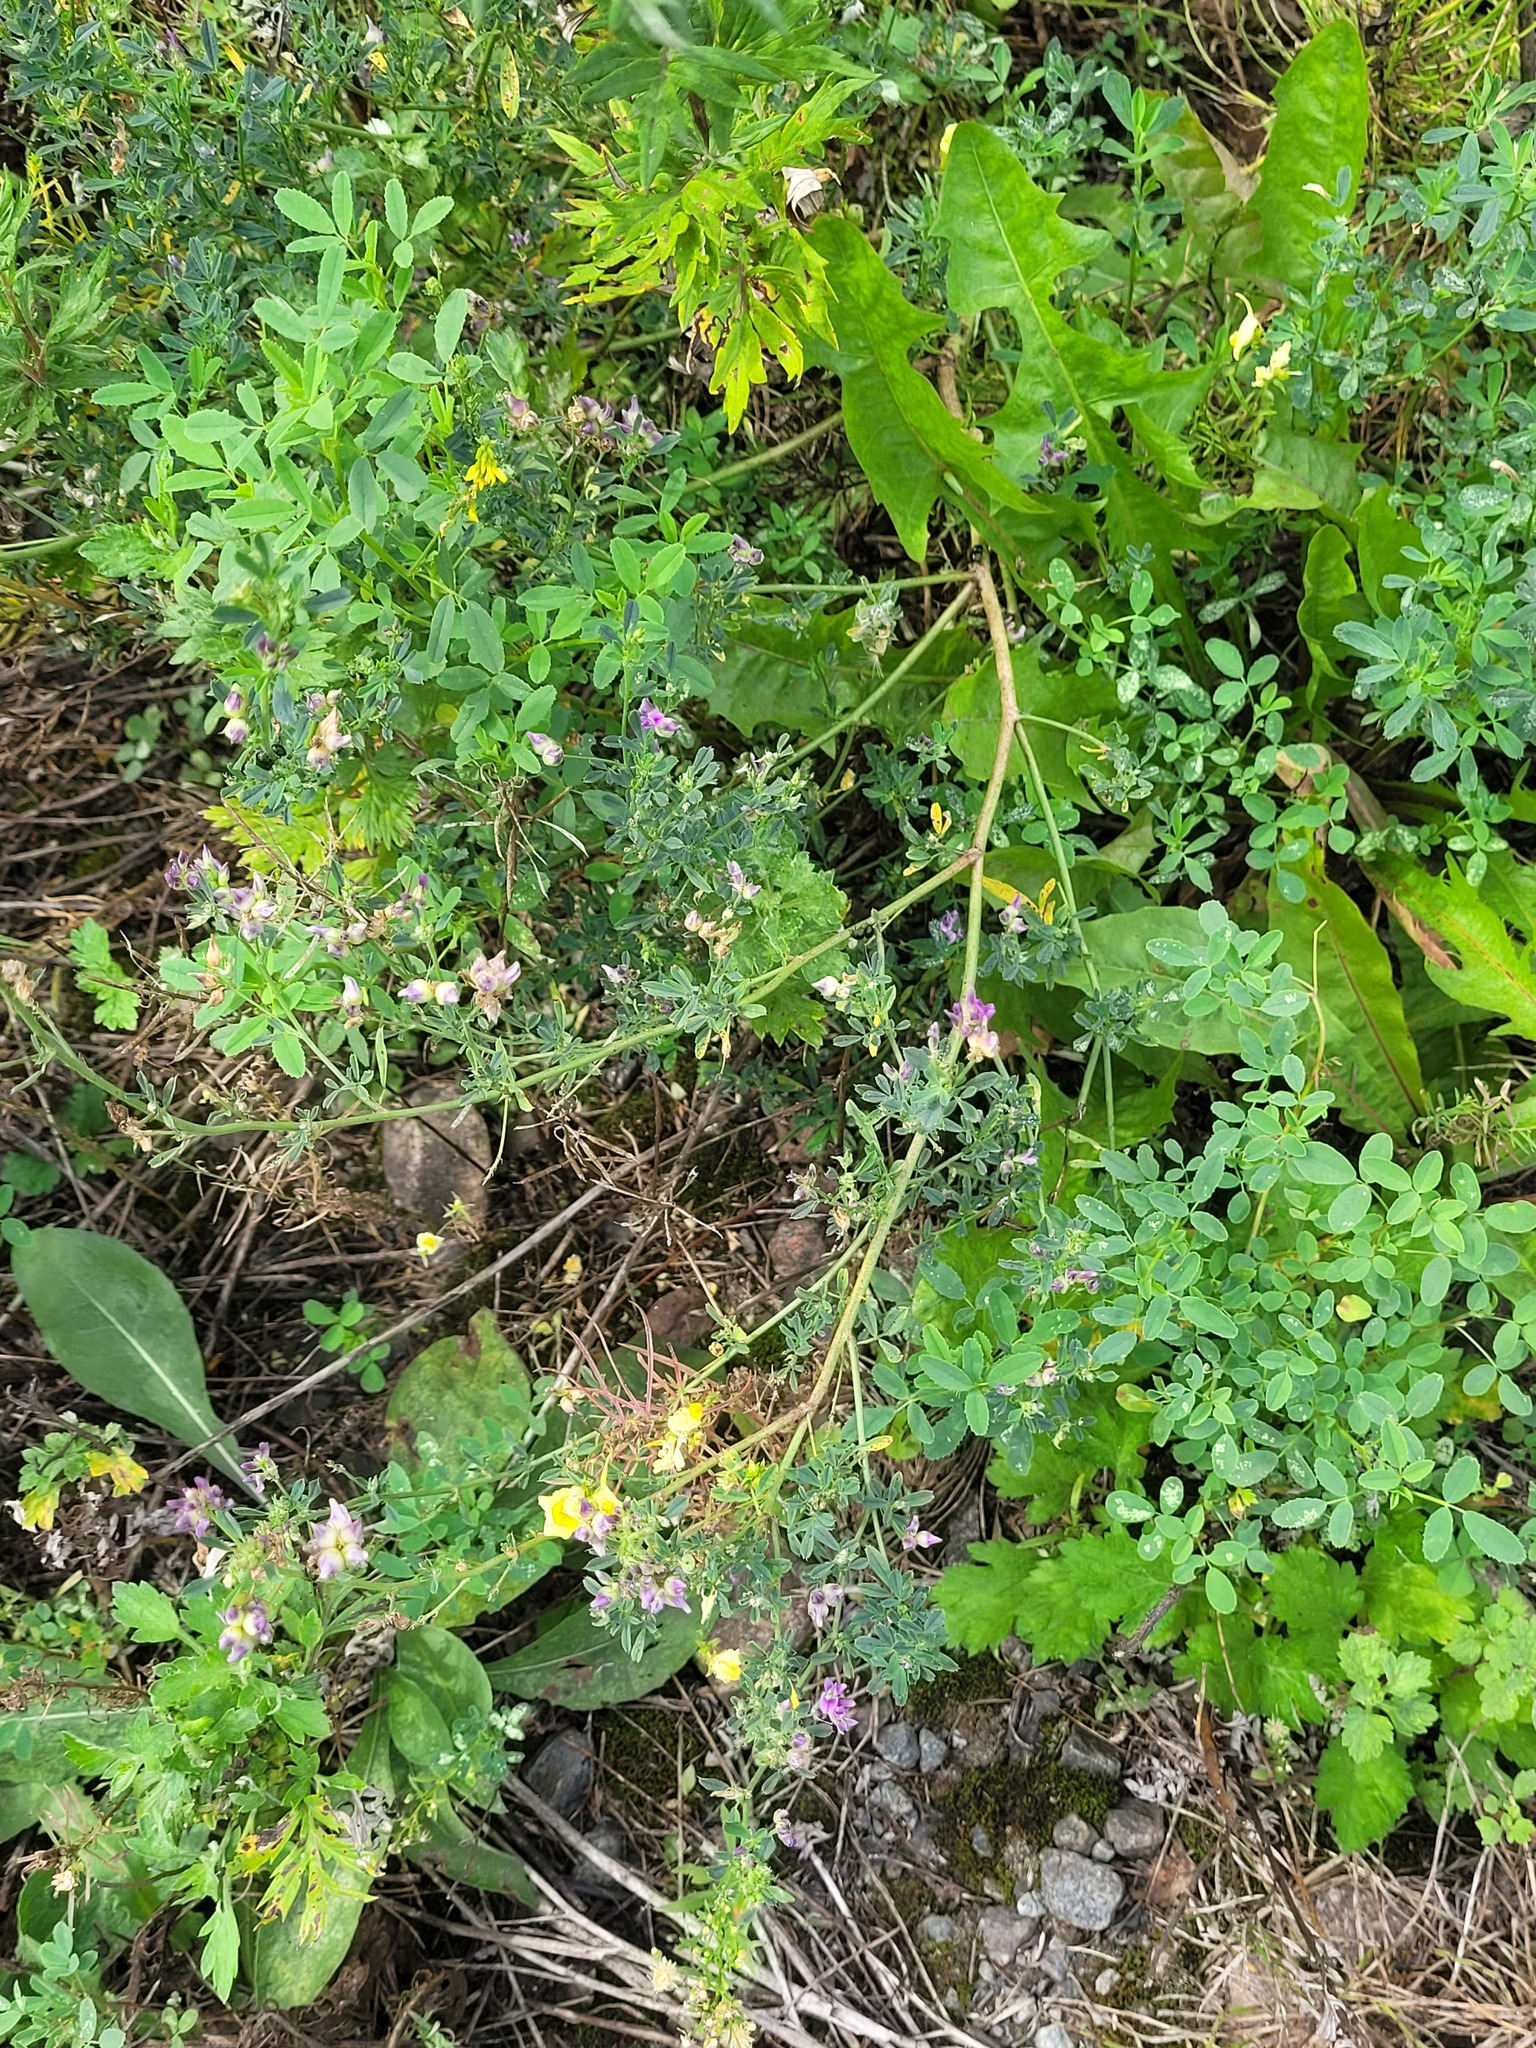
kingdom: Plantae
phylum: Tracheophyta
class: Magnoliopsida
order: Fabales
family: Fabaceae
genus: Medicago
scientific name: Medicago varia
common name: Sand lucerne
